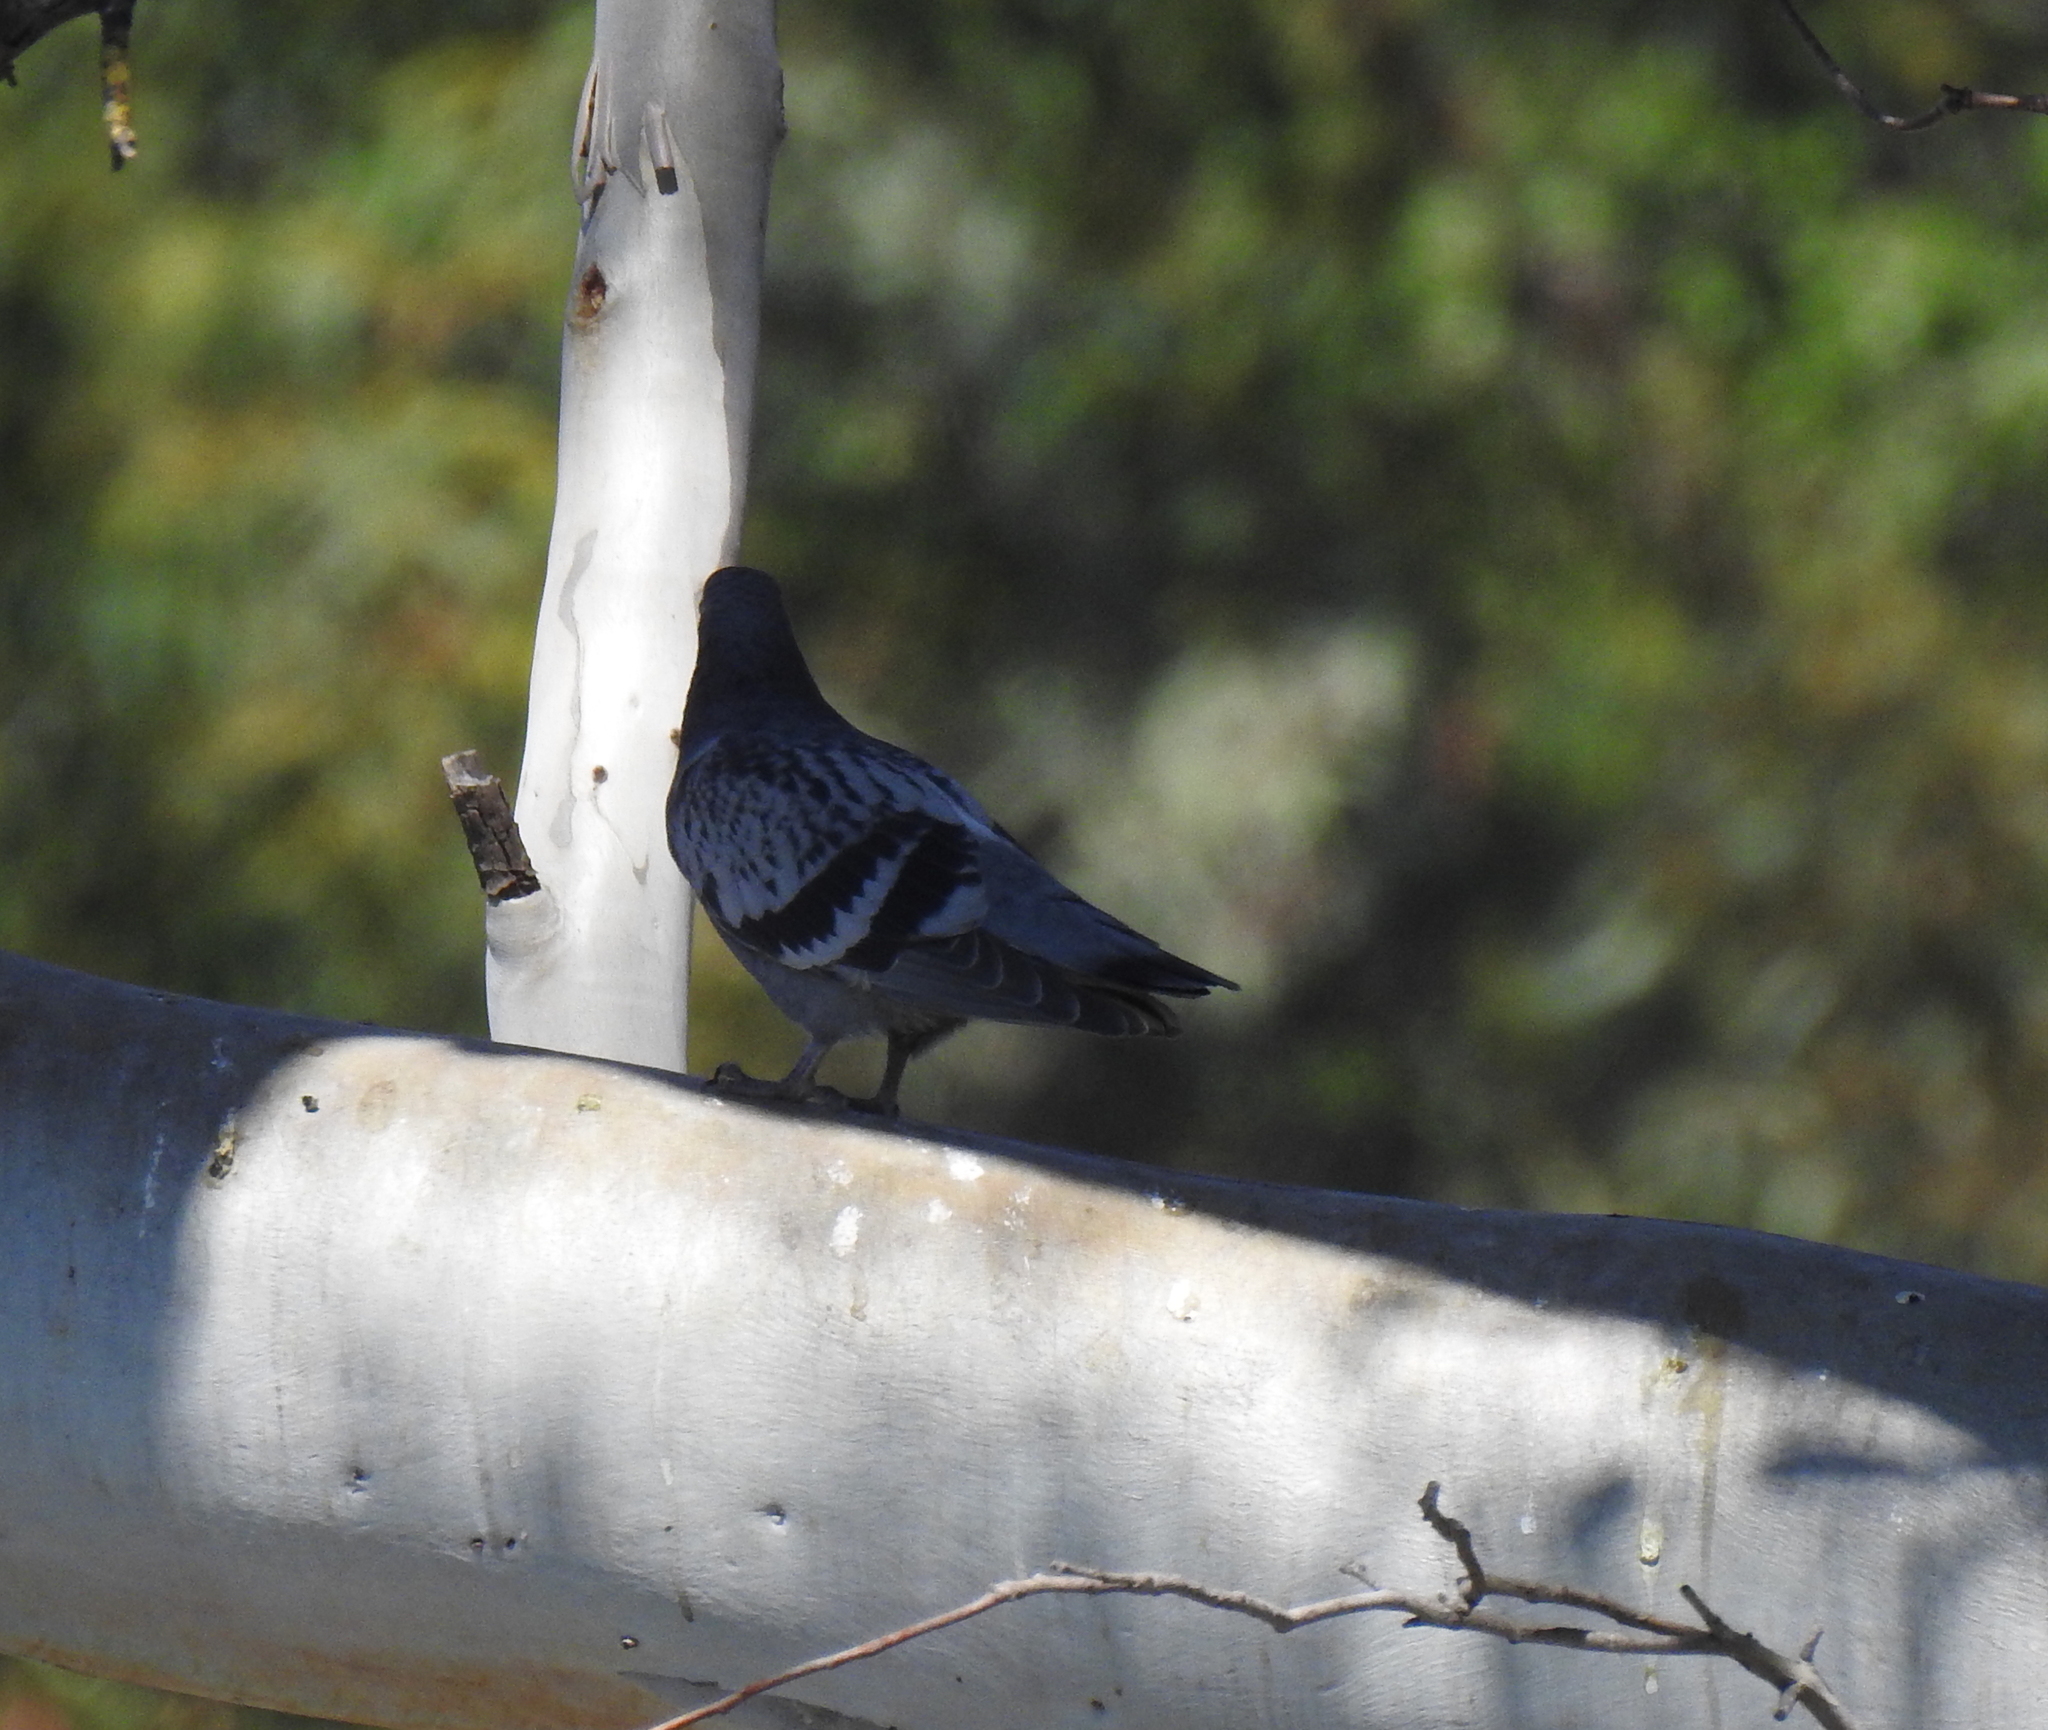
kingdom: Animalia
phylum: Chordata
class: Aves
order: Columbiformes
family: Columbidae
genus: Columba
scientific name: Columba livia
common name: Rock pigeon
